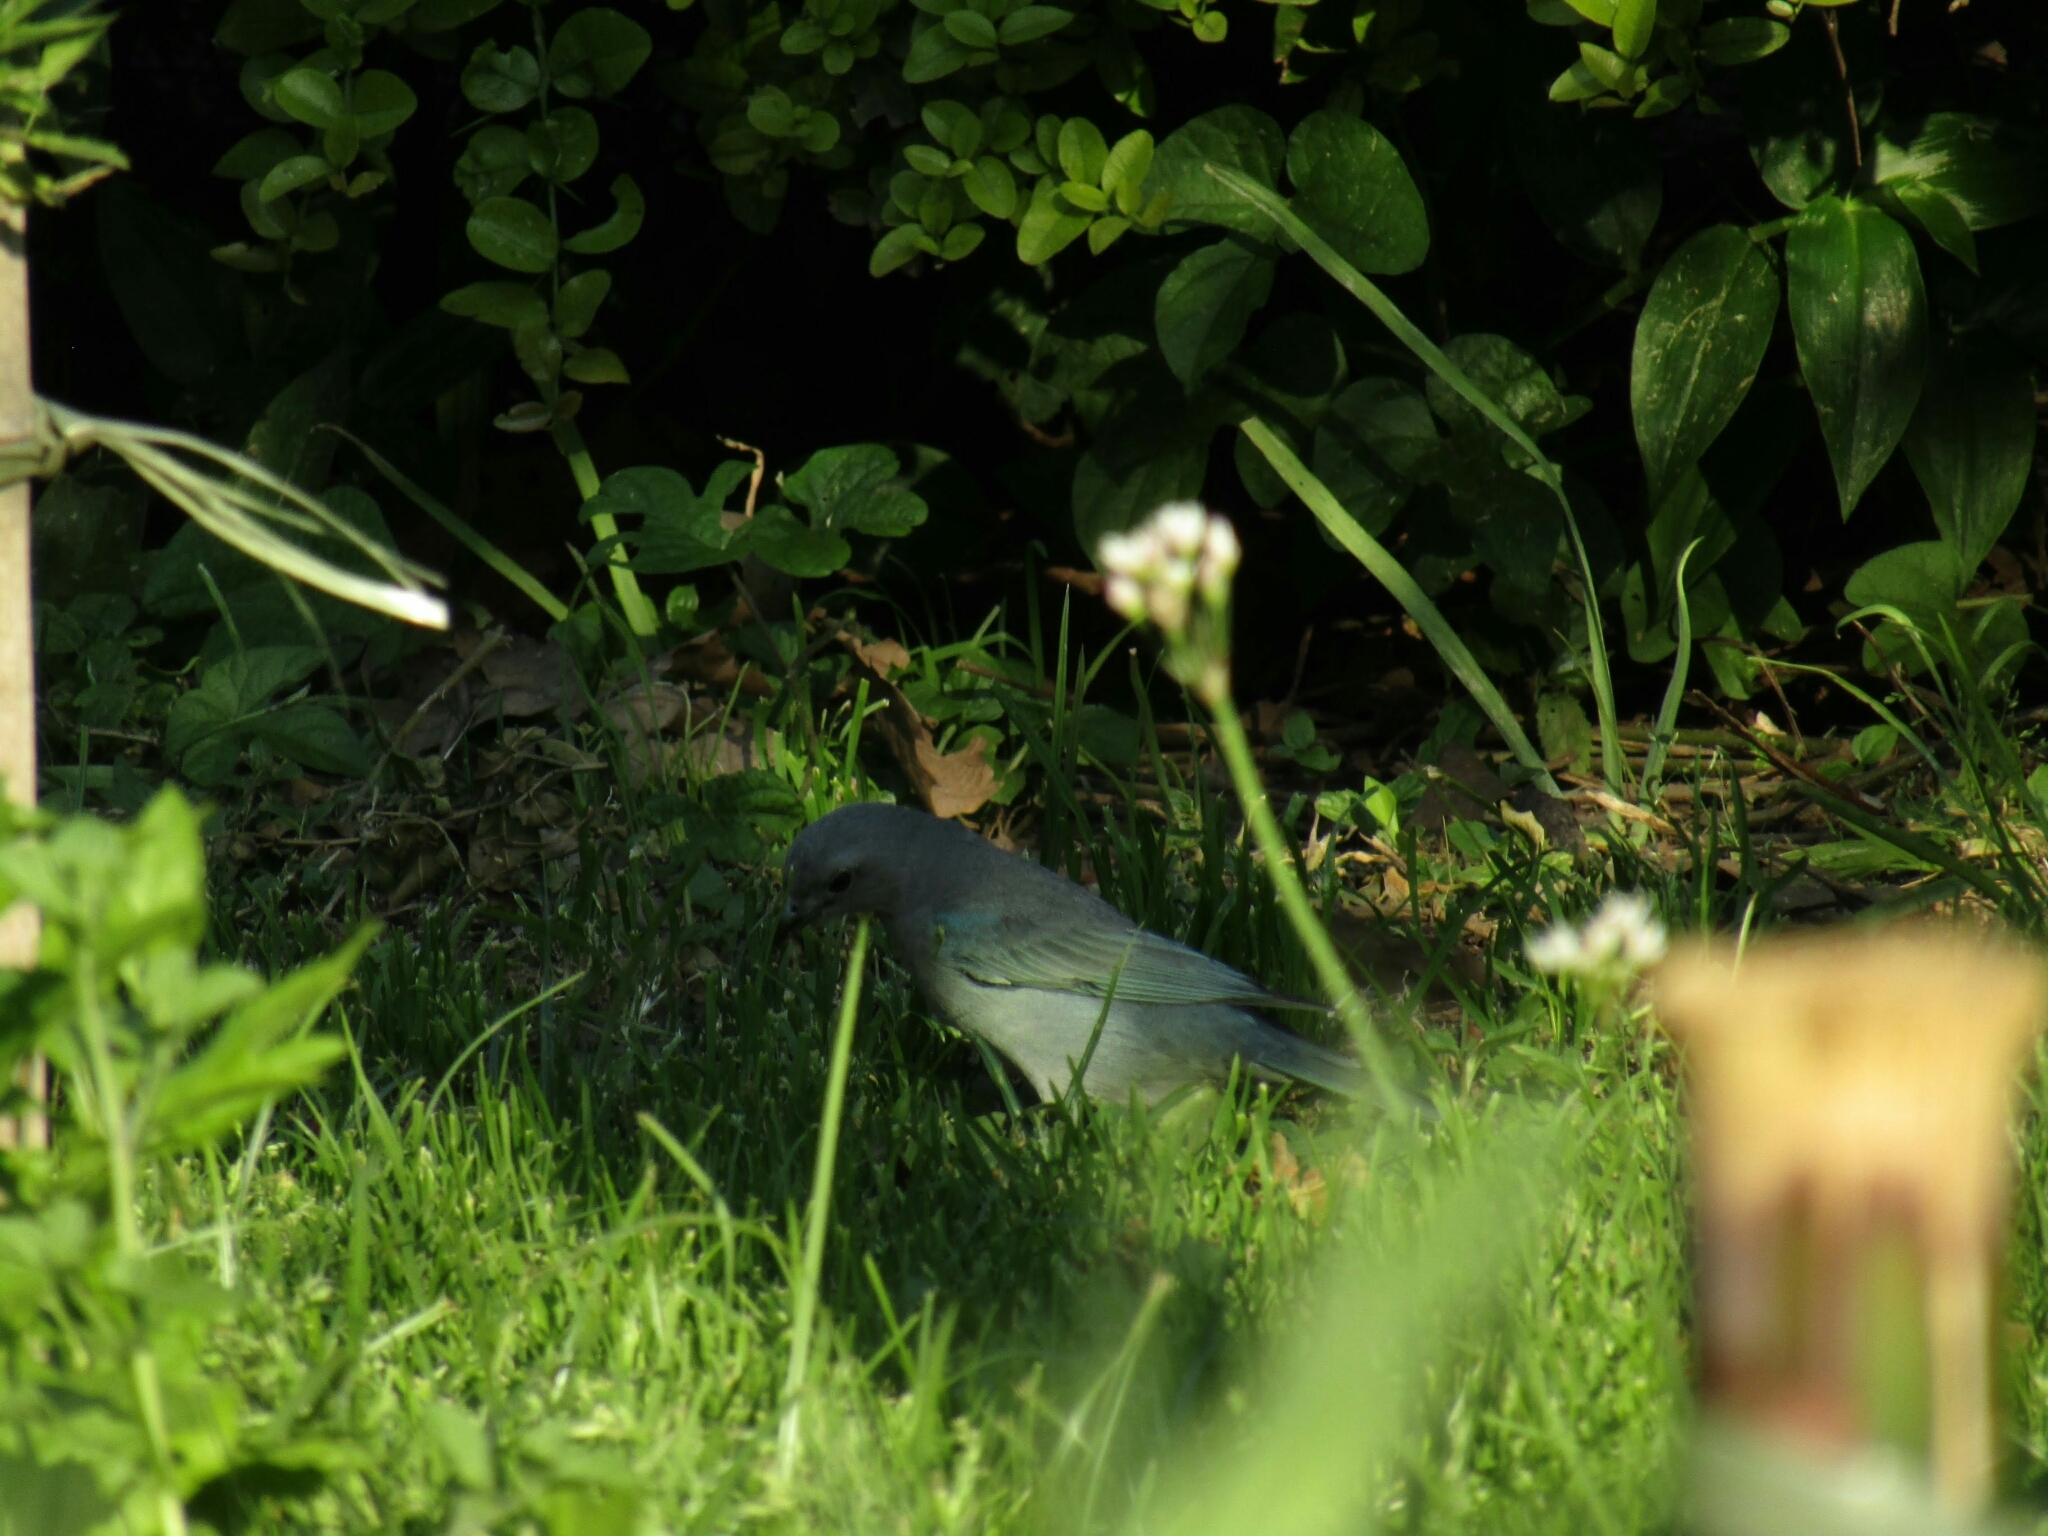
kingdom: Animalia
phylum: Chordata
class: Aves
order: Passeriformes
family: Thraupidae
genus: Thraupis
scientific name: Thraupis sayaca
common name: Sayaca tanager
